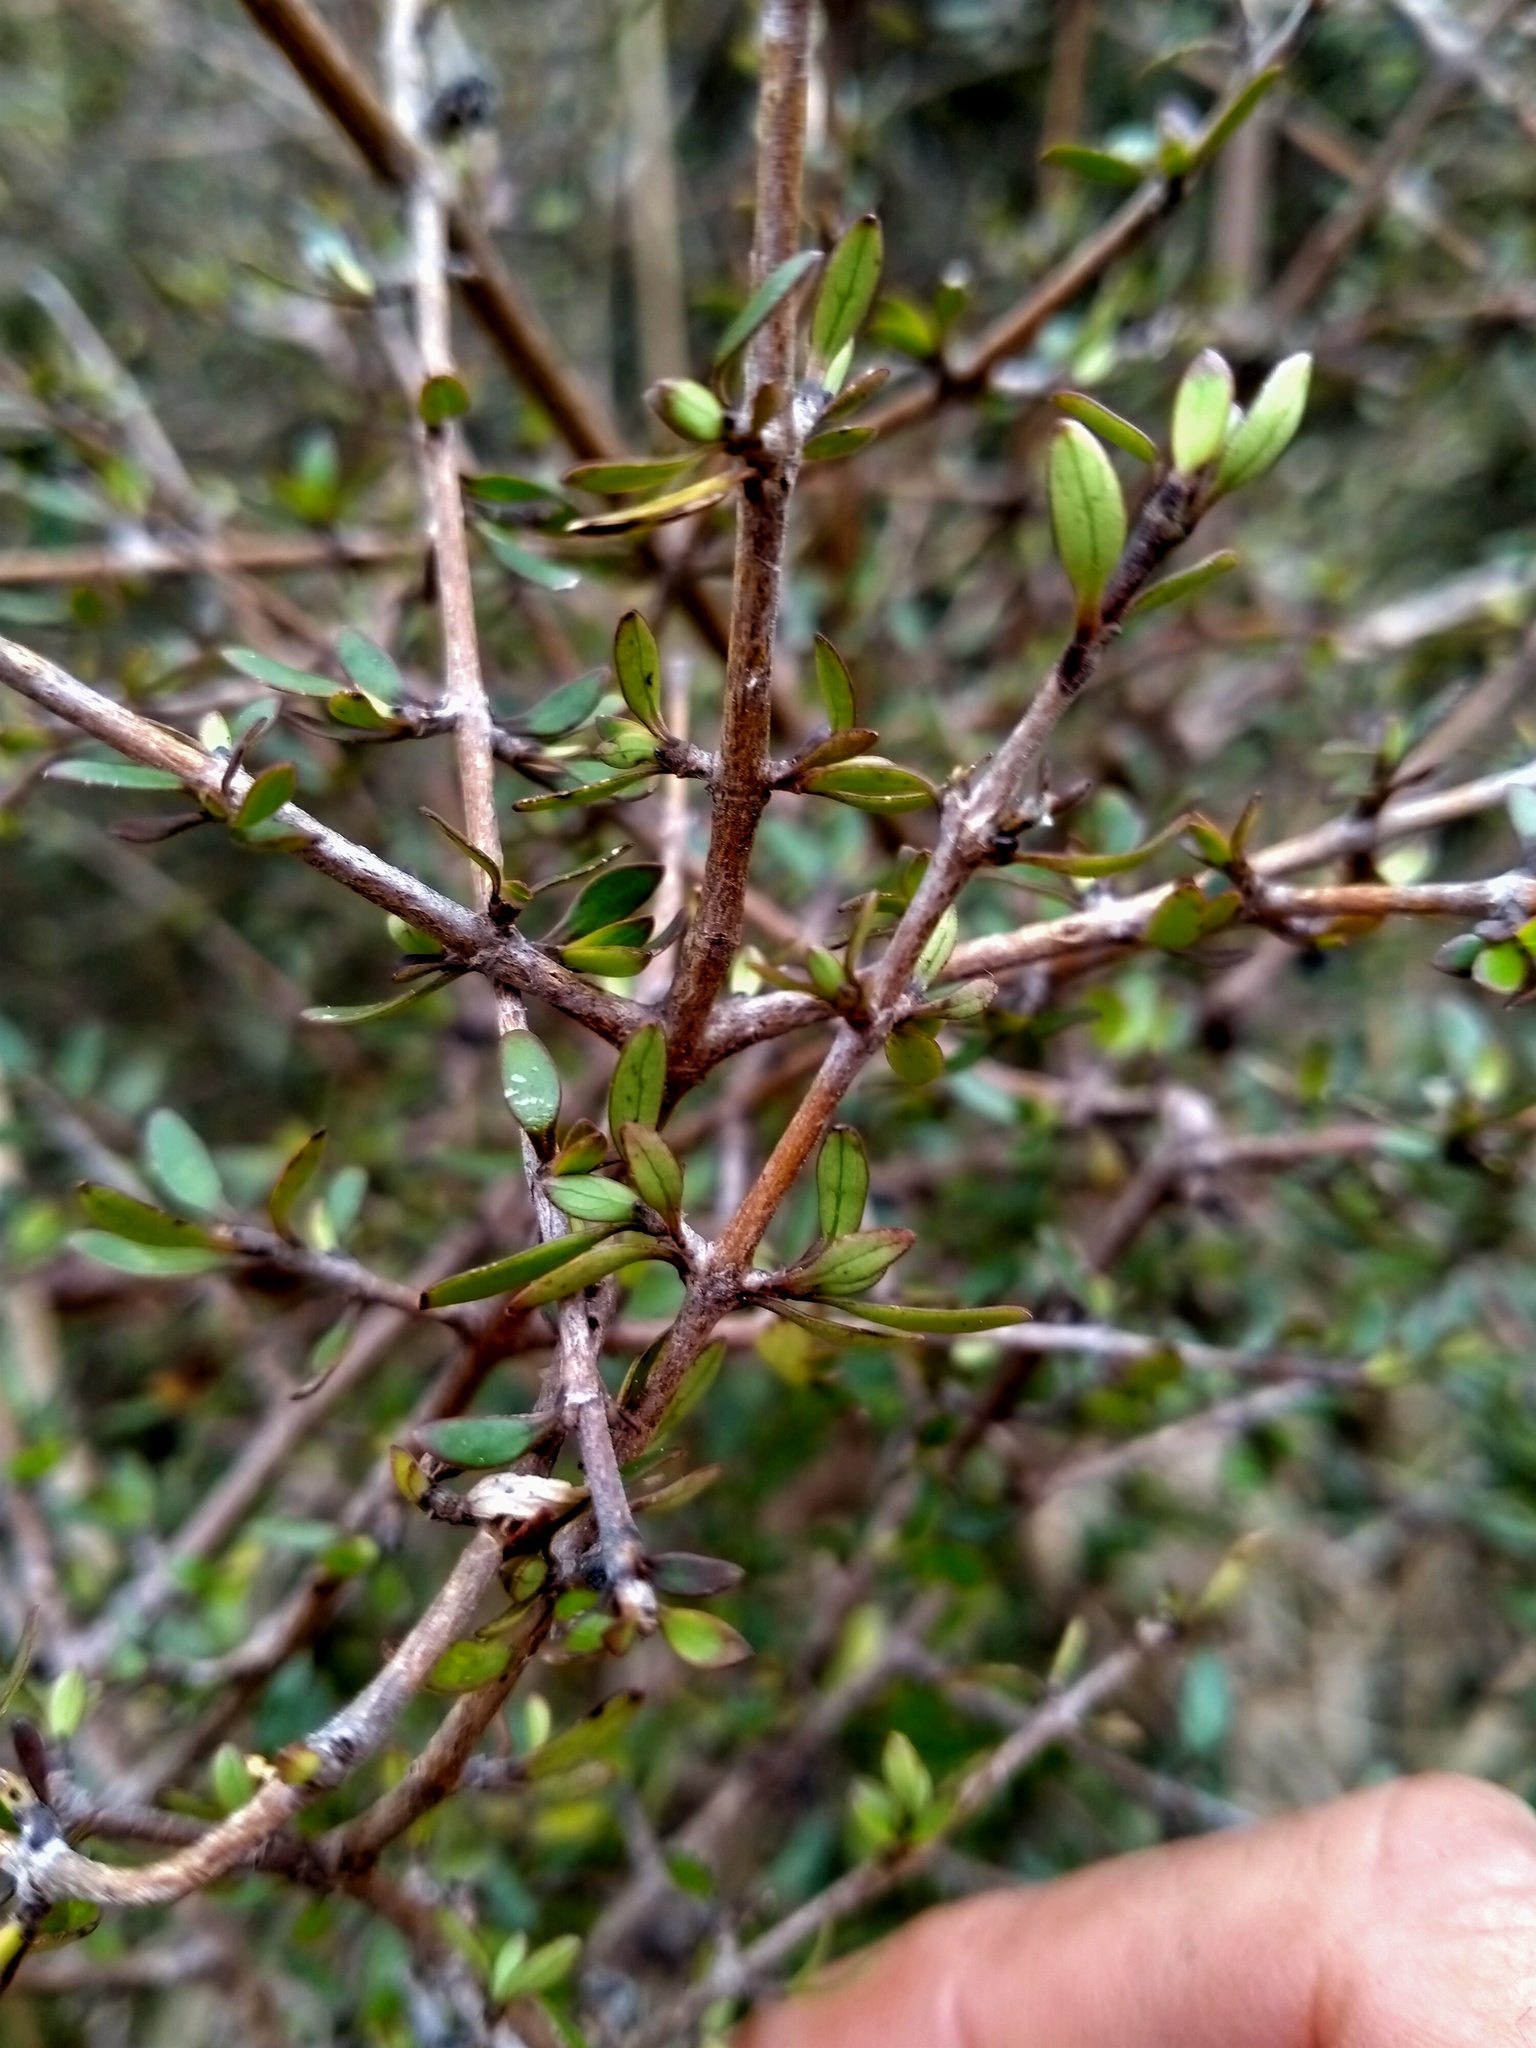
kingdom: Plantae
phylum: Tracheophyta
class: Magnoliopsida
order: Gentianales
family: Rubiaceae
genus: Coprosma
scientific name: Coprosma propinqua
